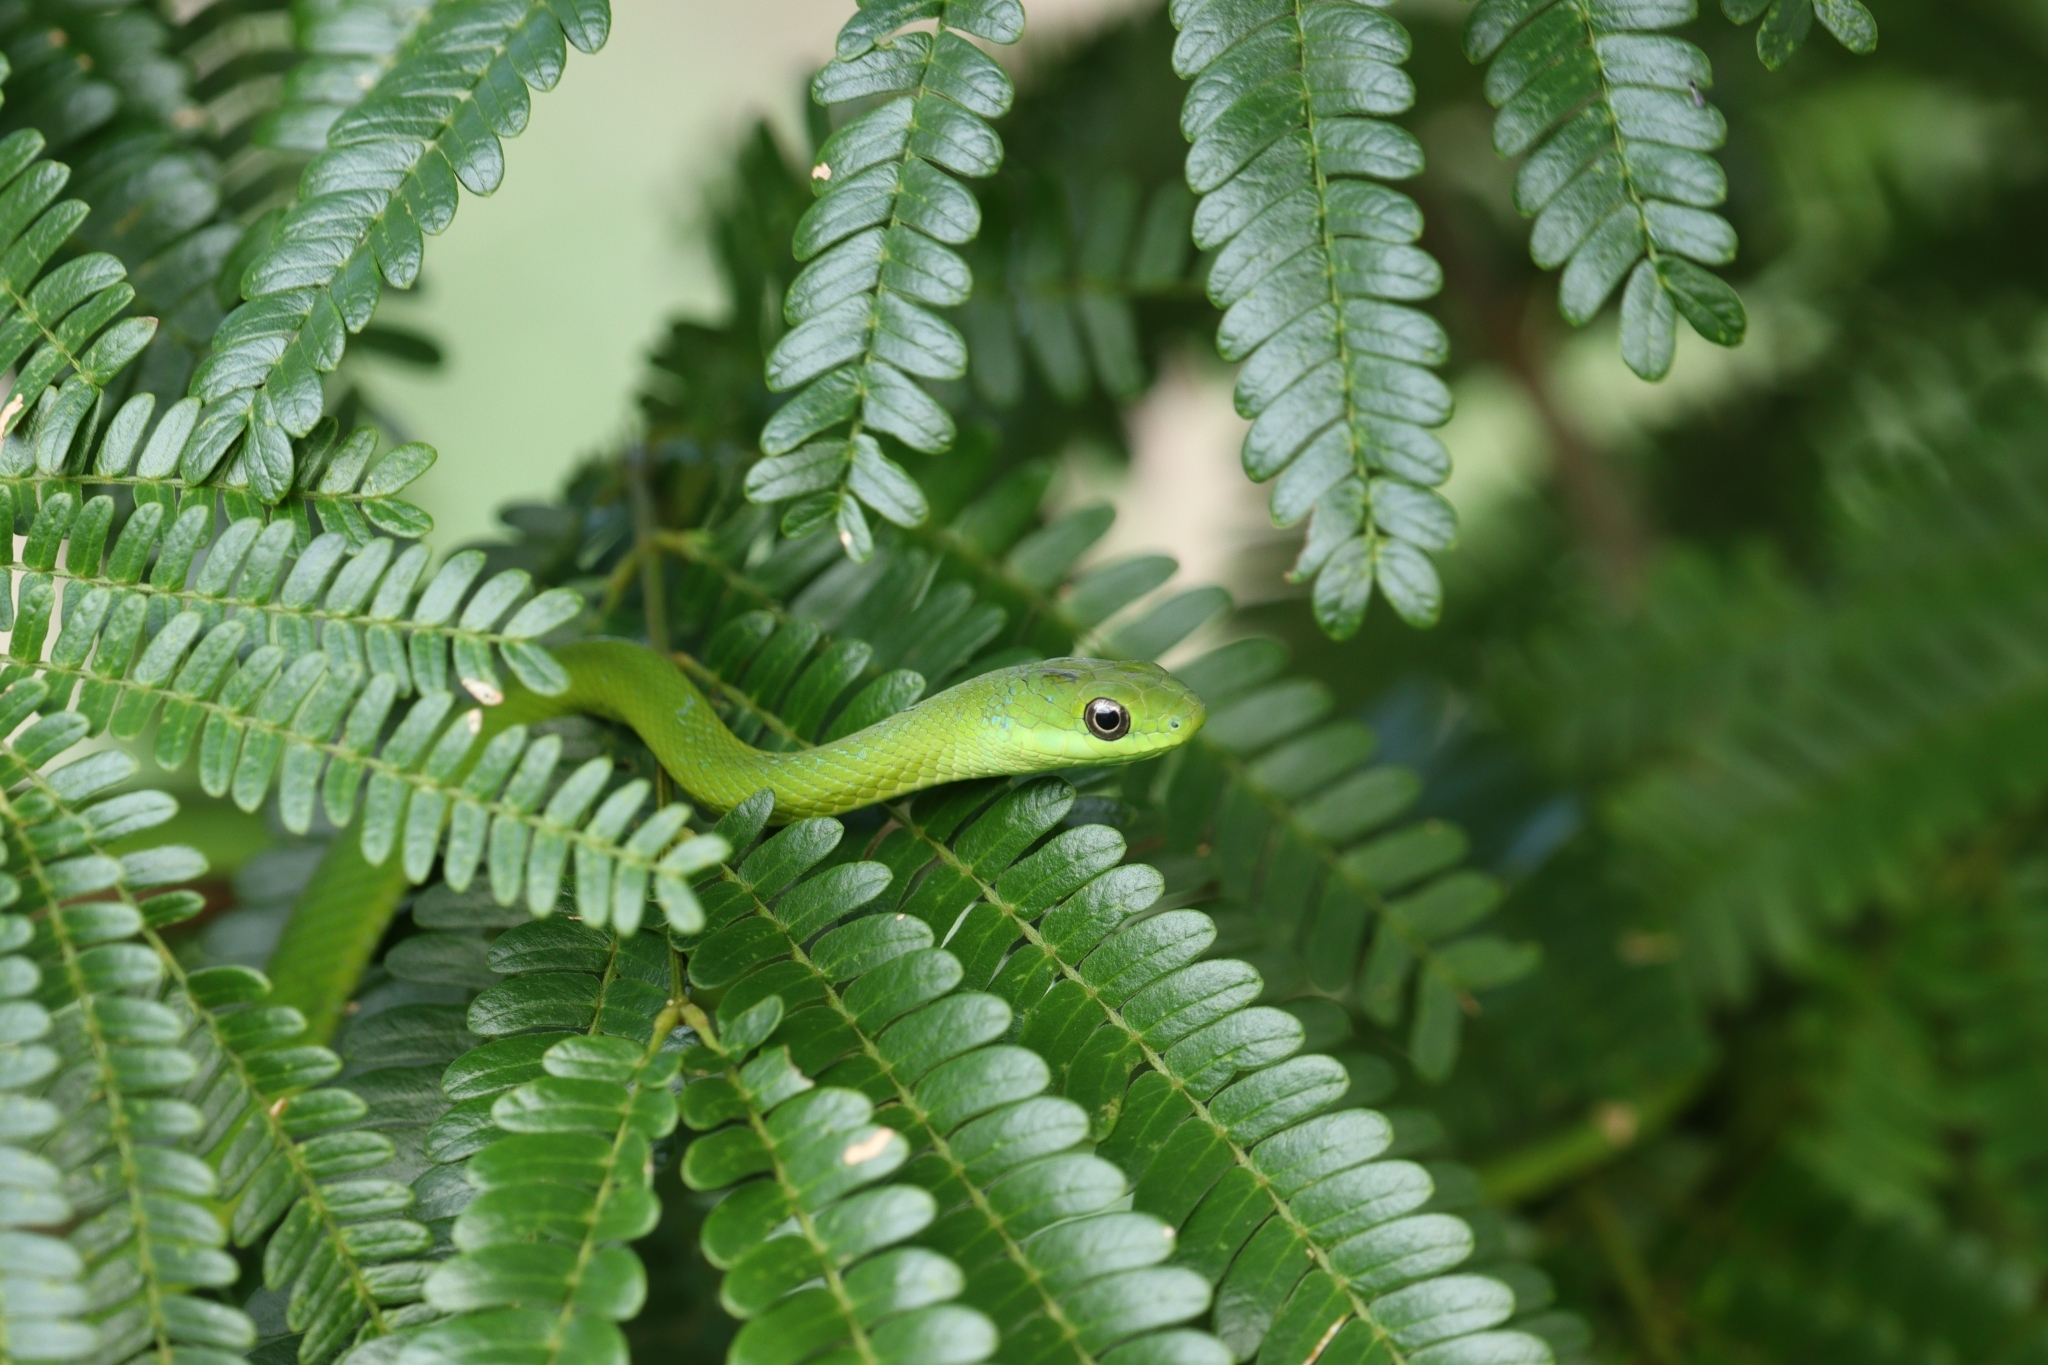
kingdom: Animalia
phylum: Chordata
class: Squamata
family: Colubridae
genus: Philodryas
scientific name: Philodryas olfersii
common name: Lichtenstein's green racer
